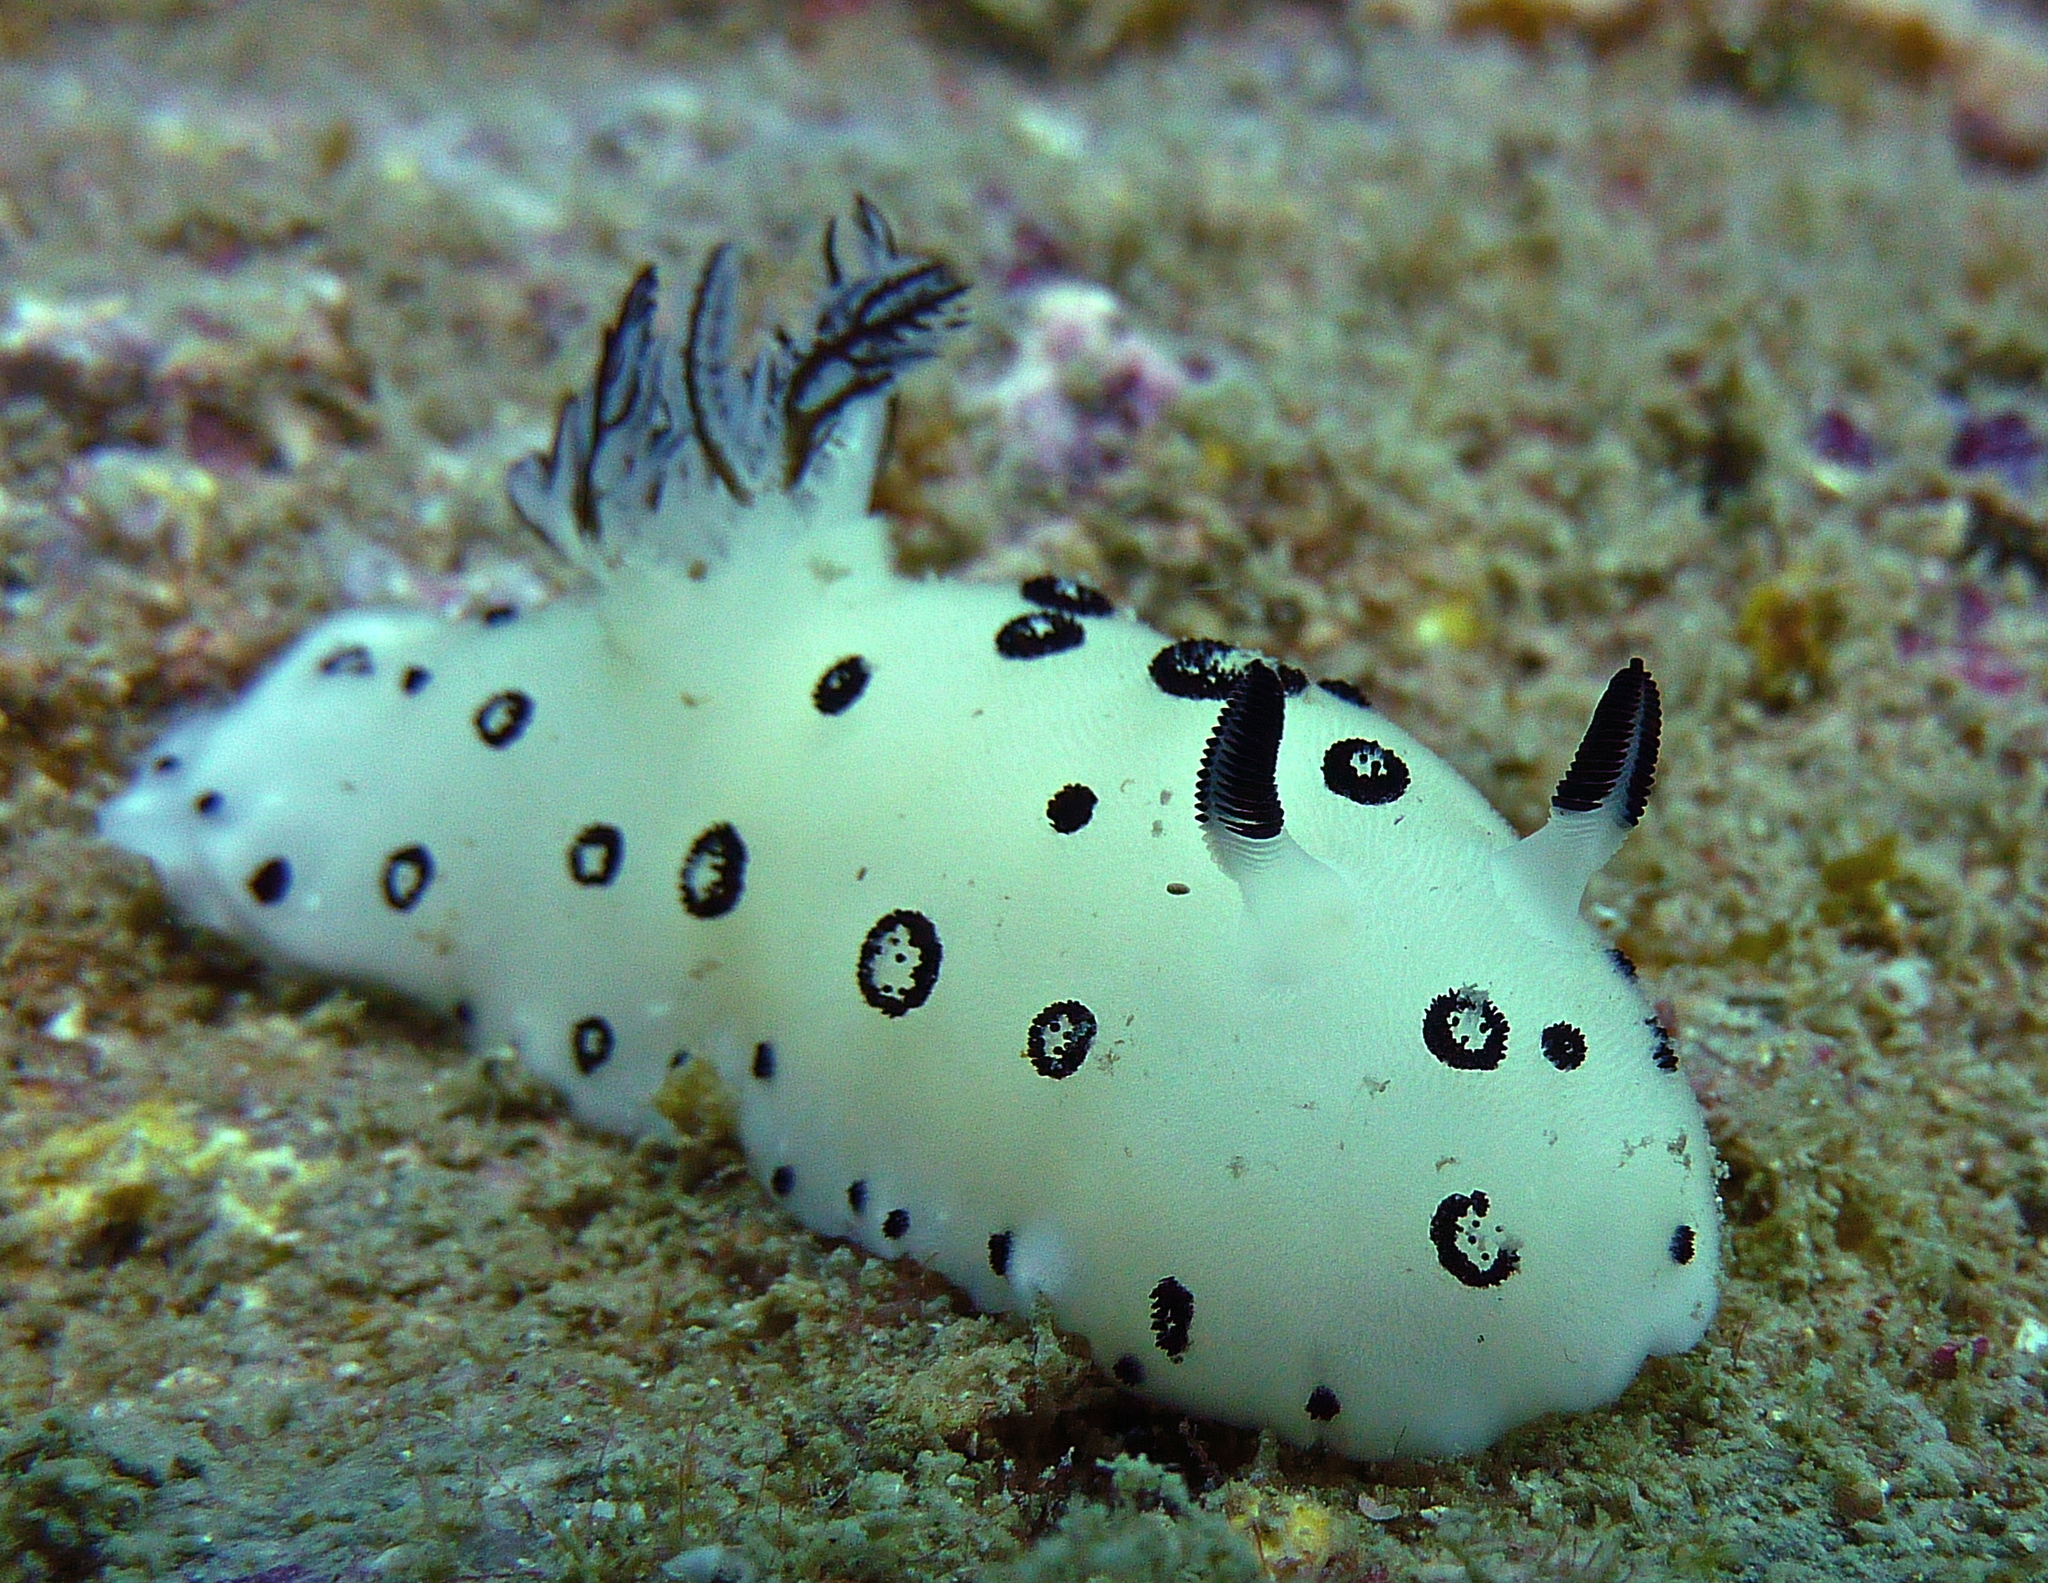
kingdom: Animalia
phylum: Mollusca
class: Gastropoda
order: Nudibranchia
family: Discodorididae
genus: Jorunna
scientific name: Jorunna funebris
